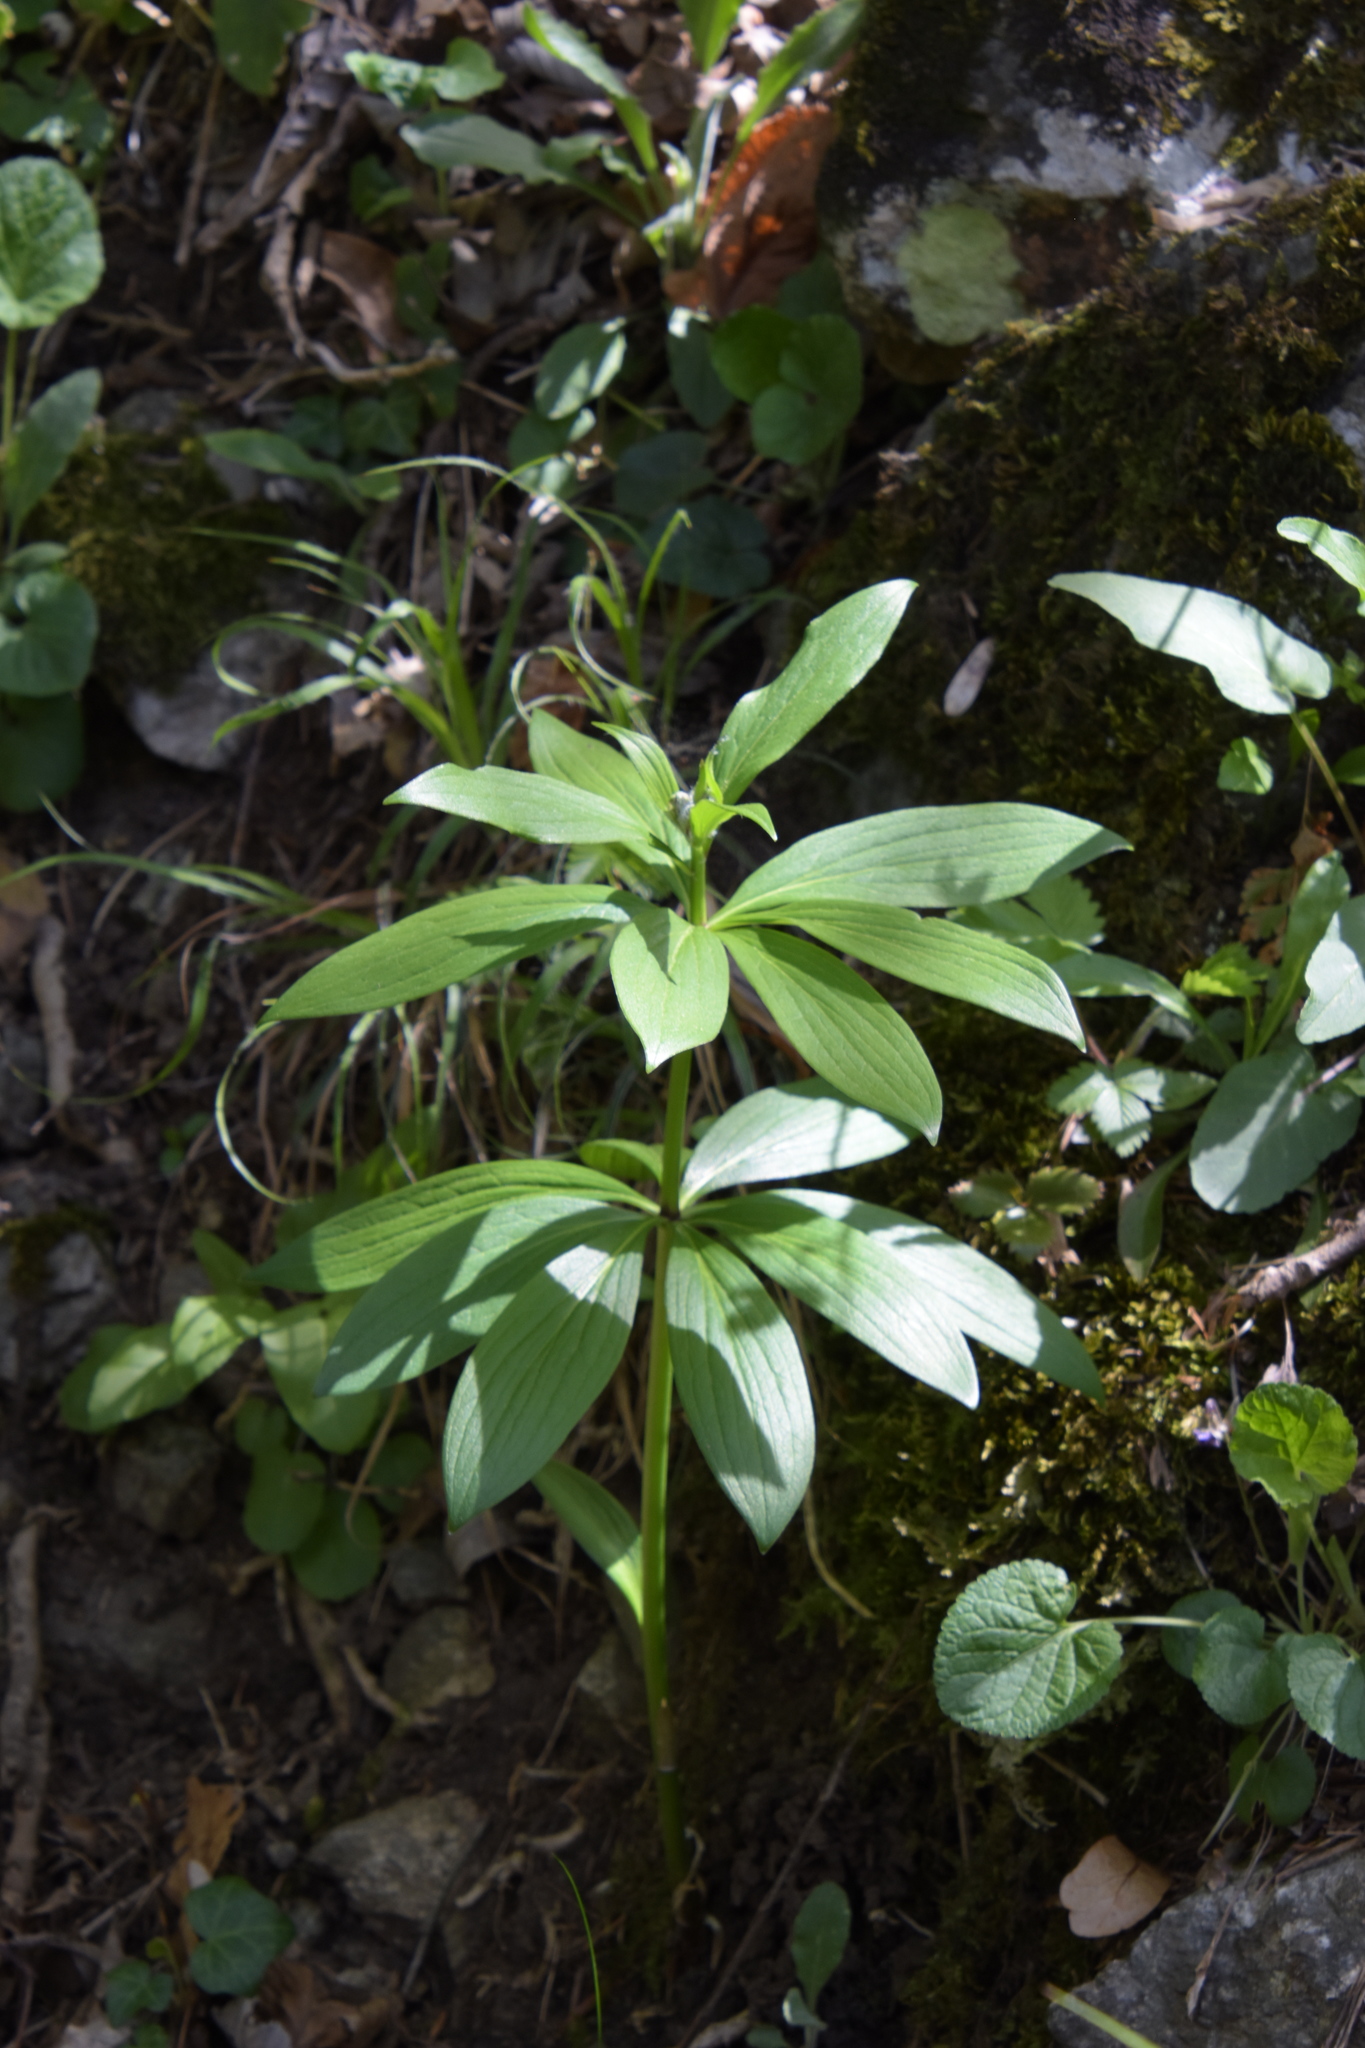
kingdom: Plantae
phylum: Tracheophyta
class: Liliopsida
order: Liliales
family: Liliaceae
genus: Lilium
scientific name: Lilium martagon
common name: Martagon lily
